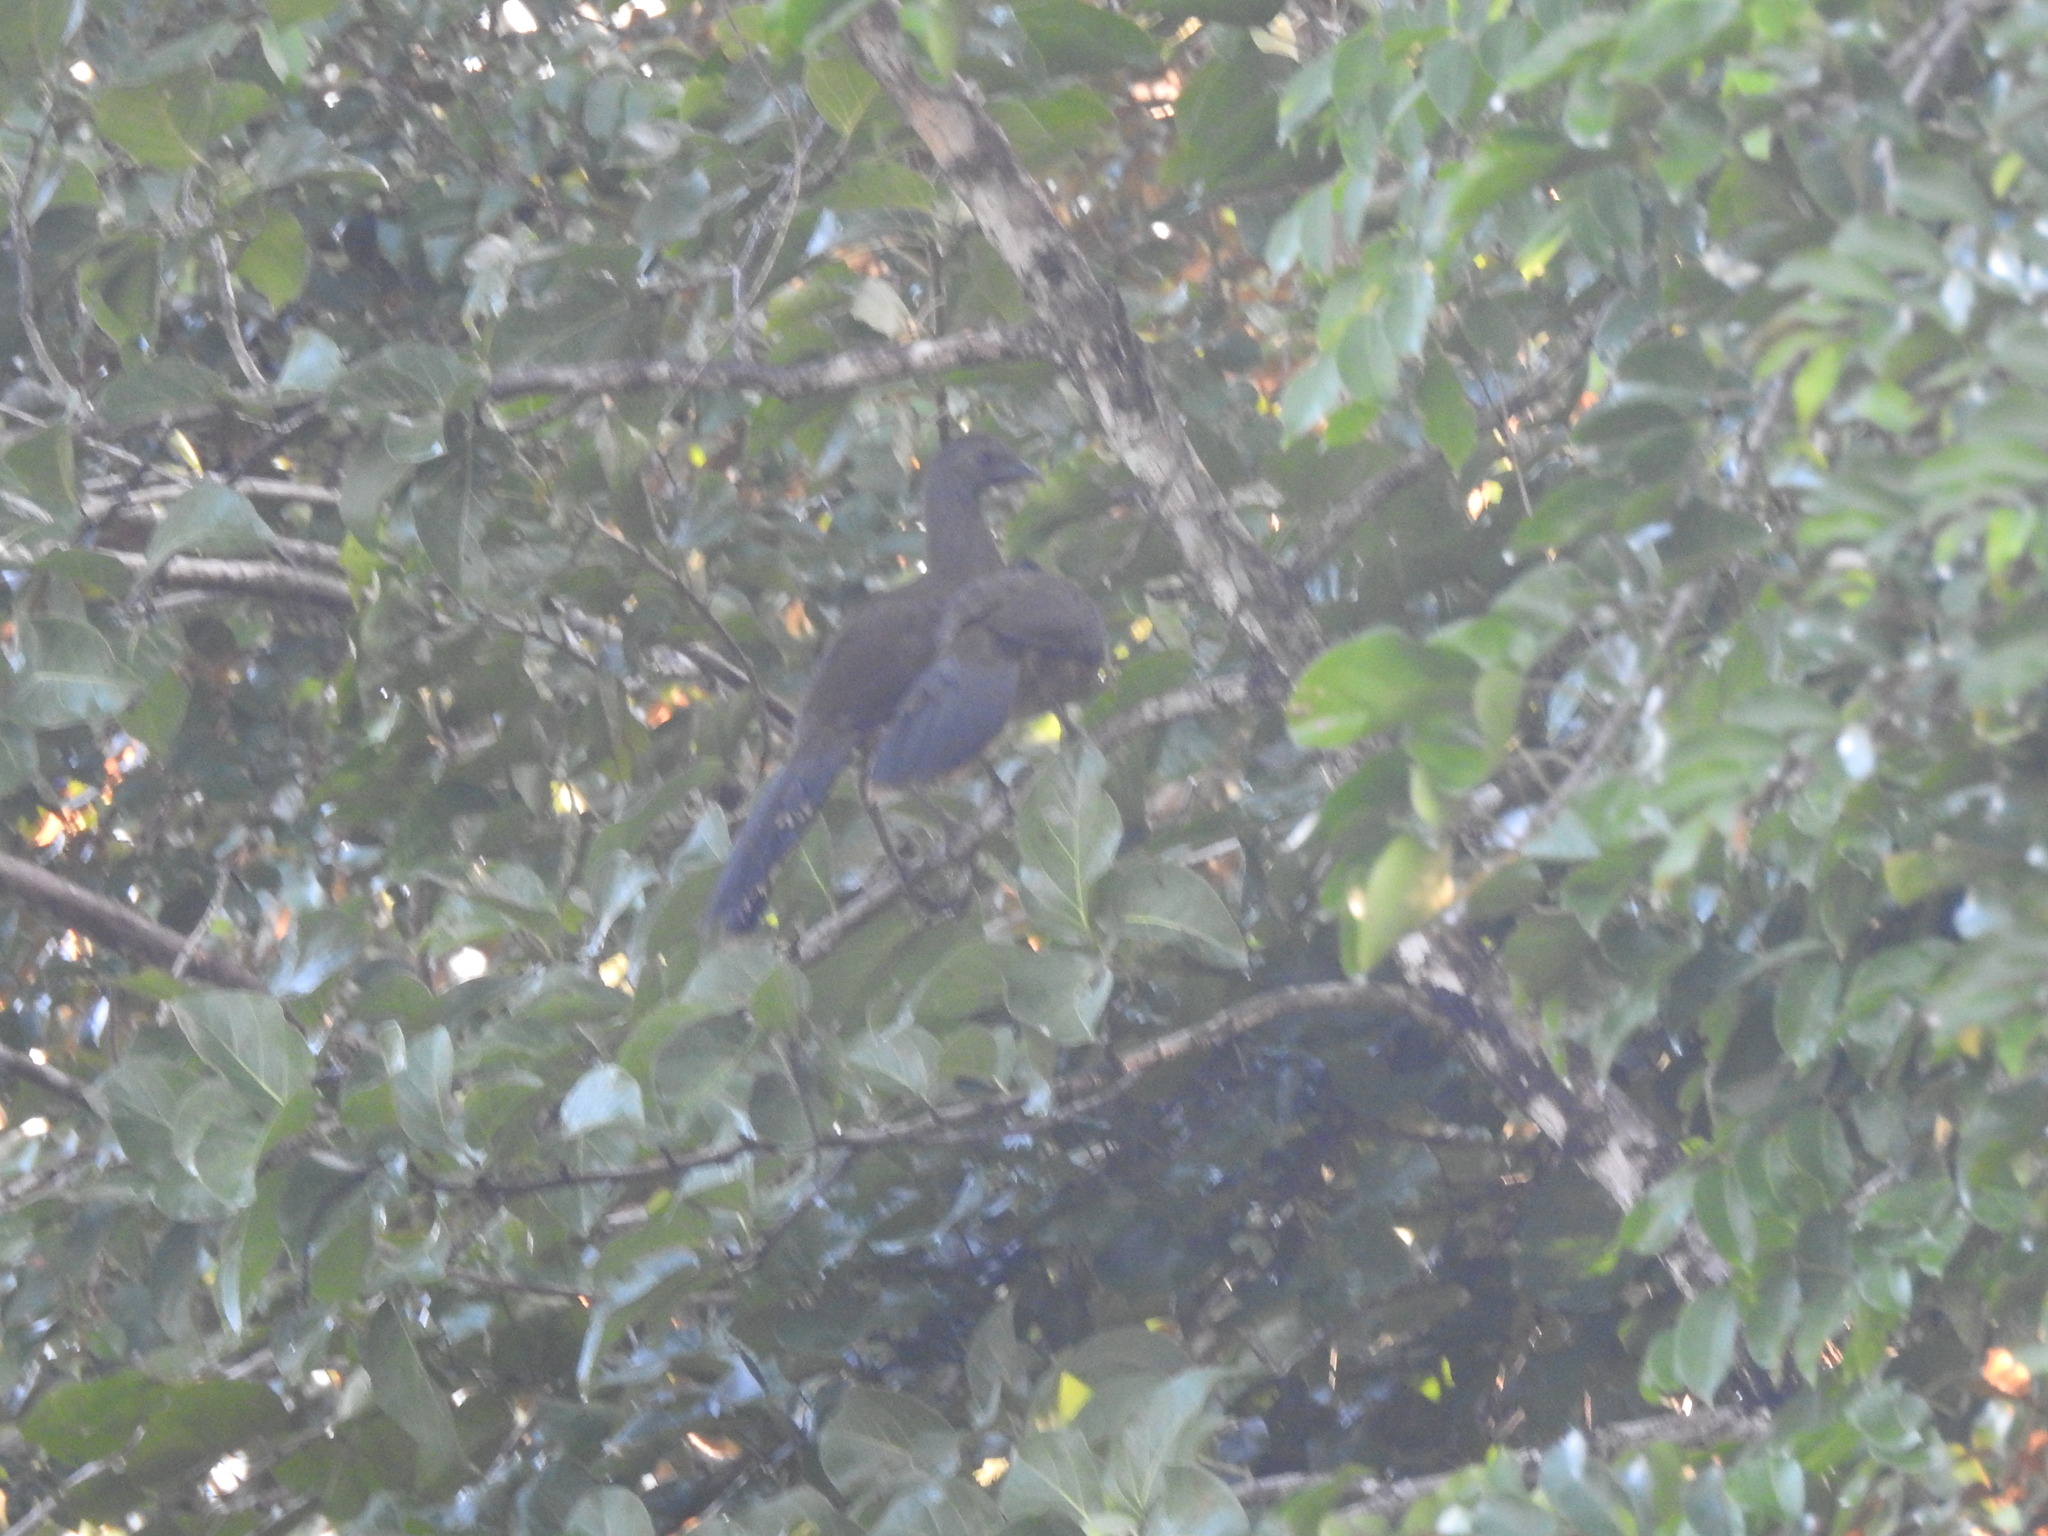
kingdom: Animalia
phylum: Chordata
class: Aves
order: Galliformes
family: Cracidae
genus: Ortalis
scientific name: Ortalis vetula
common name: Plain chachalaca
